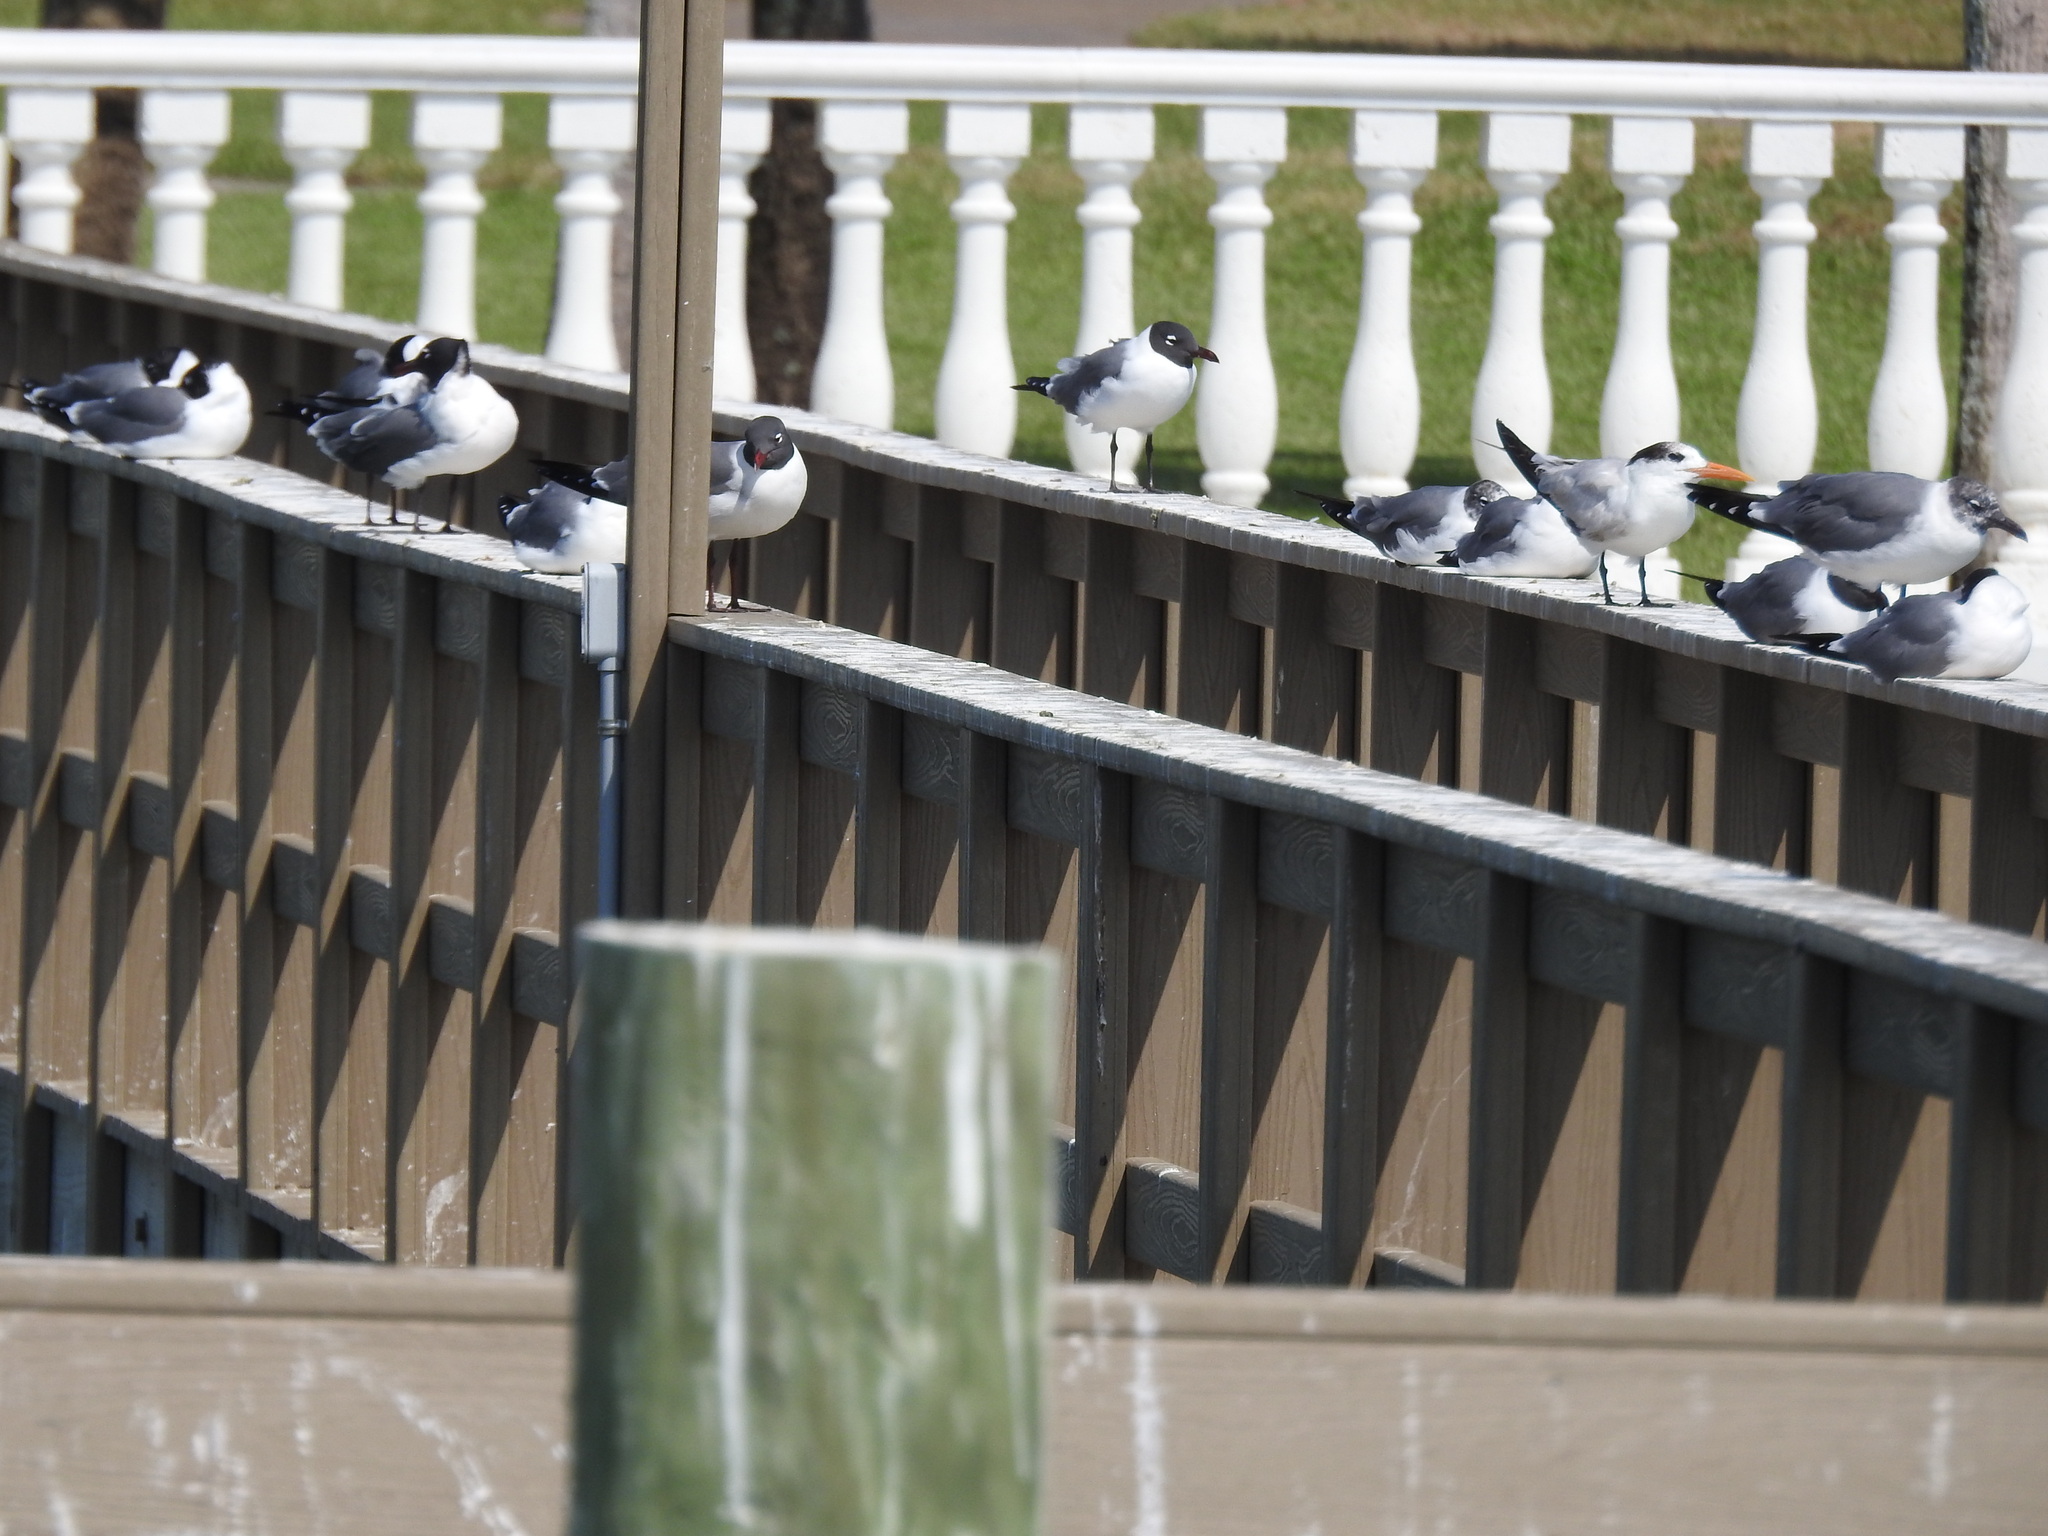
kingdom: Animalia
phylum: Chordata
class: Aves
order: Charadriiformes
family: Laridae
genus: Thalasseus
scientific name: Thalasseus maximus
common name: Royal tern
